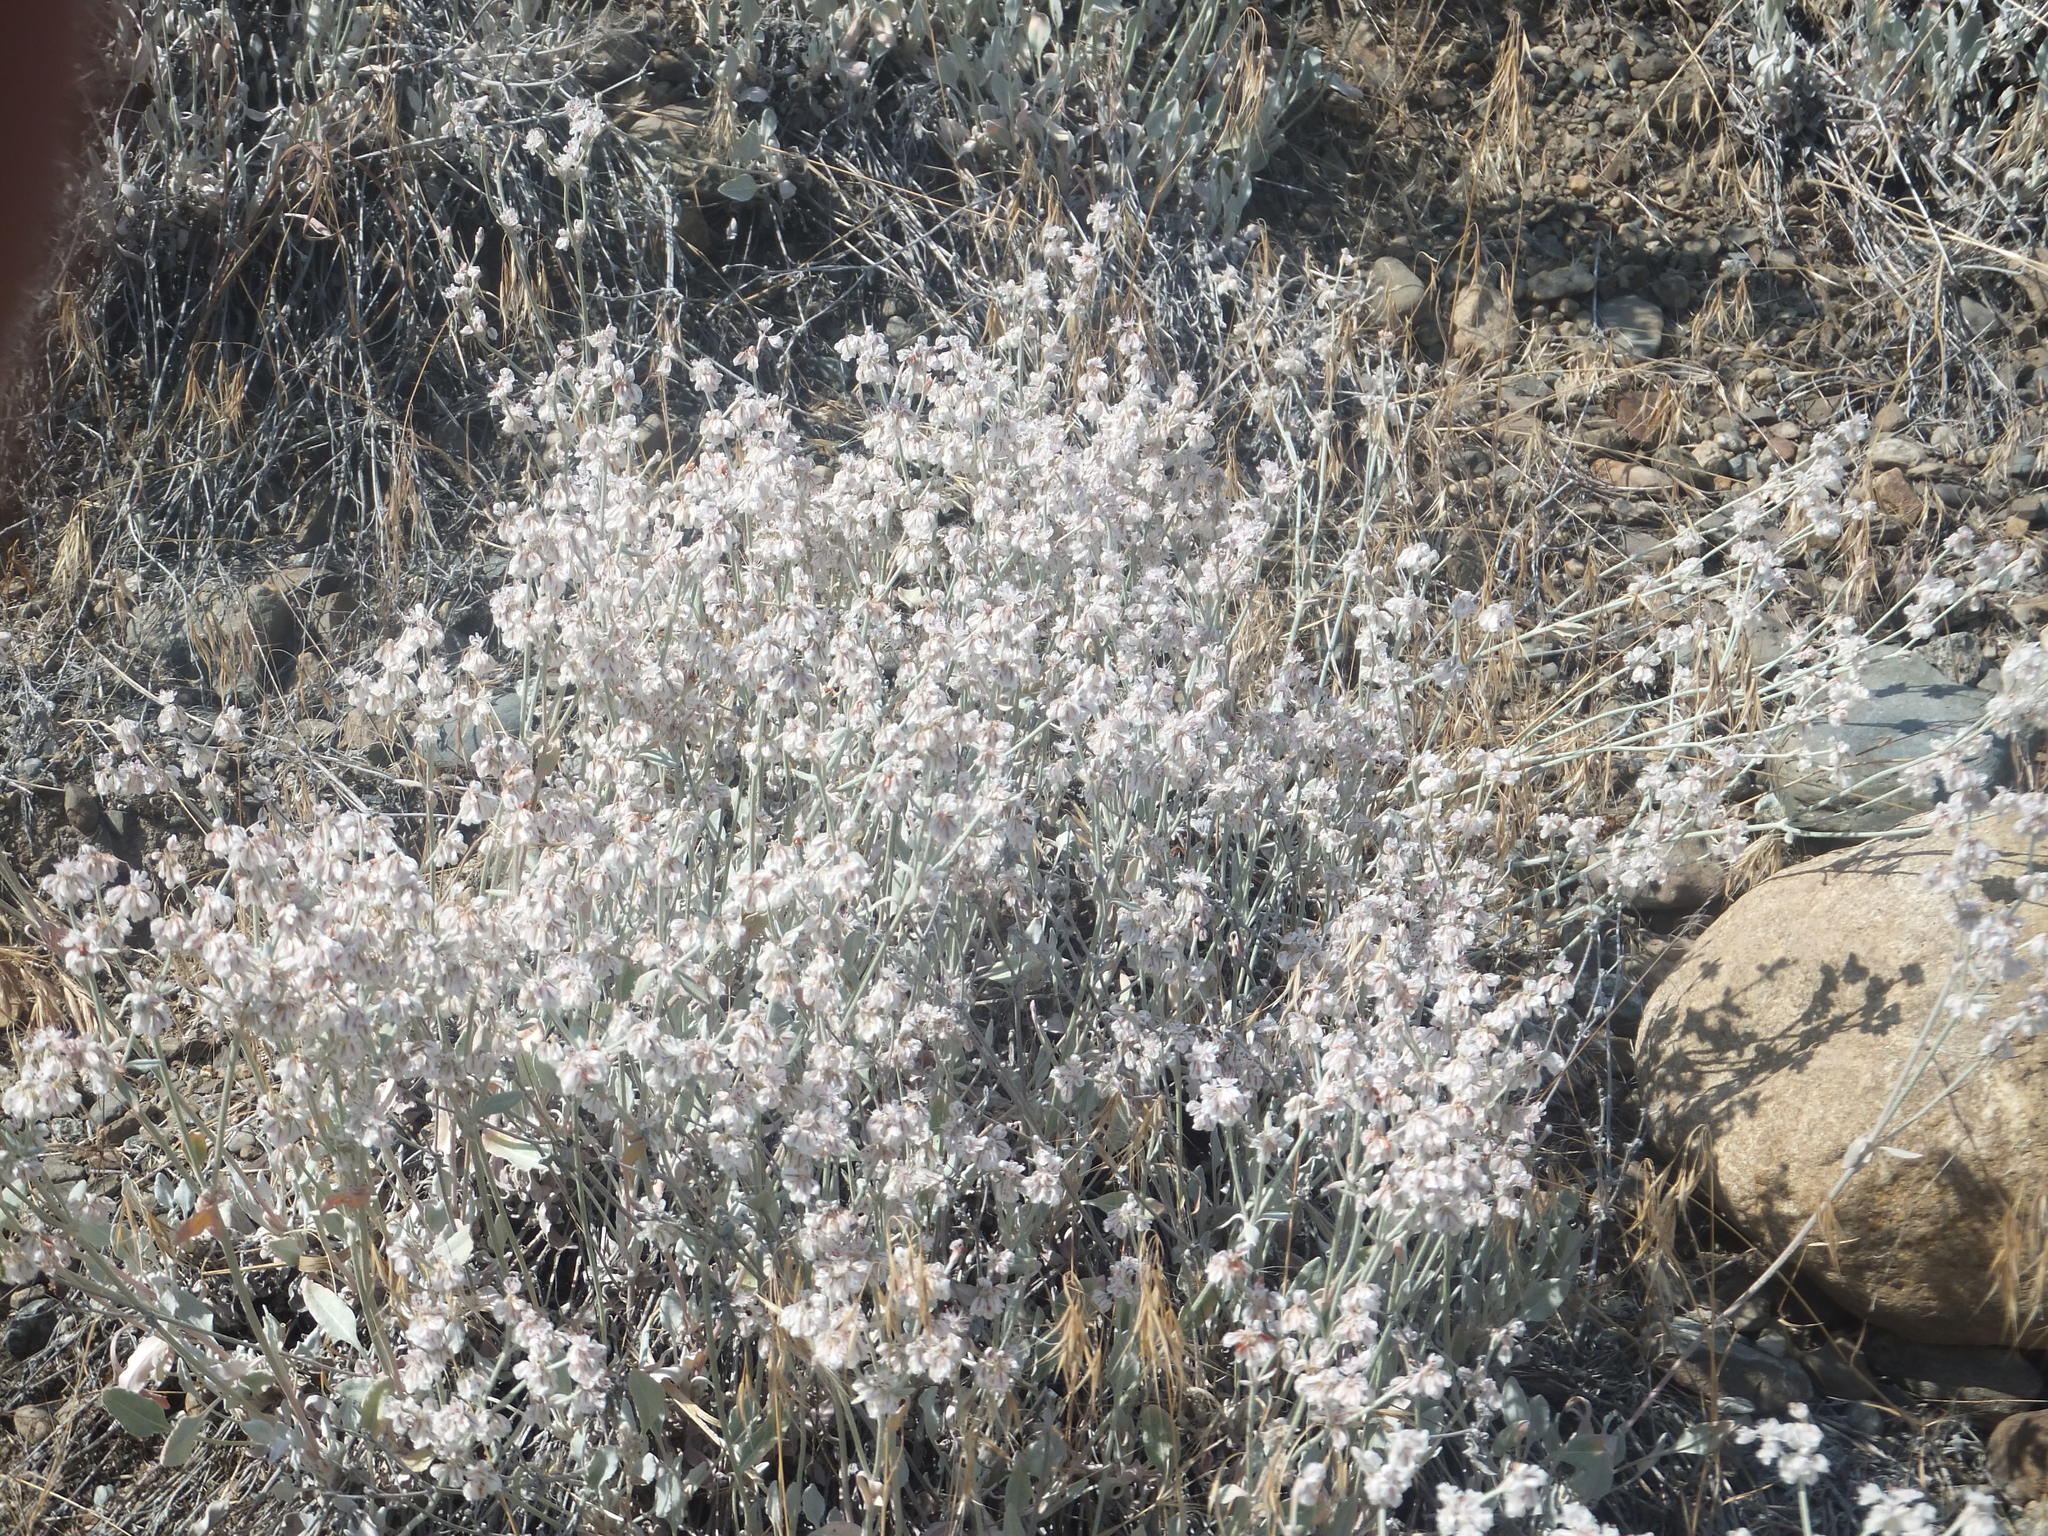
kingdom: Plantae
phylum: Tracheophyta
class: Magnoliopsida
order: Caryophyllales
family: Polygonaceae
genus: Eriogonum
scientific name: Eriogonum niveum
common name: Snow wild buckwheat
